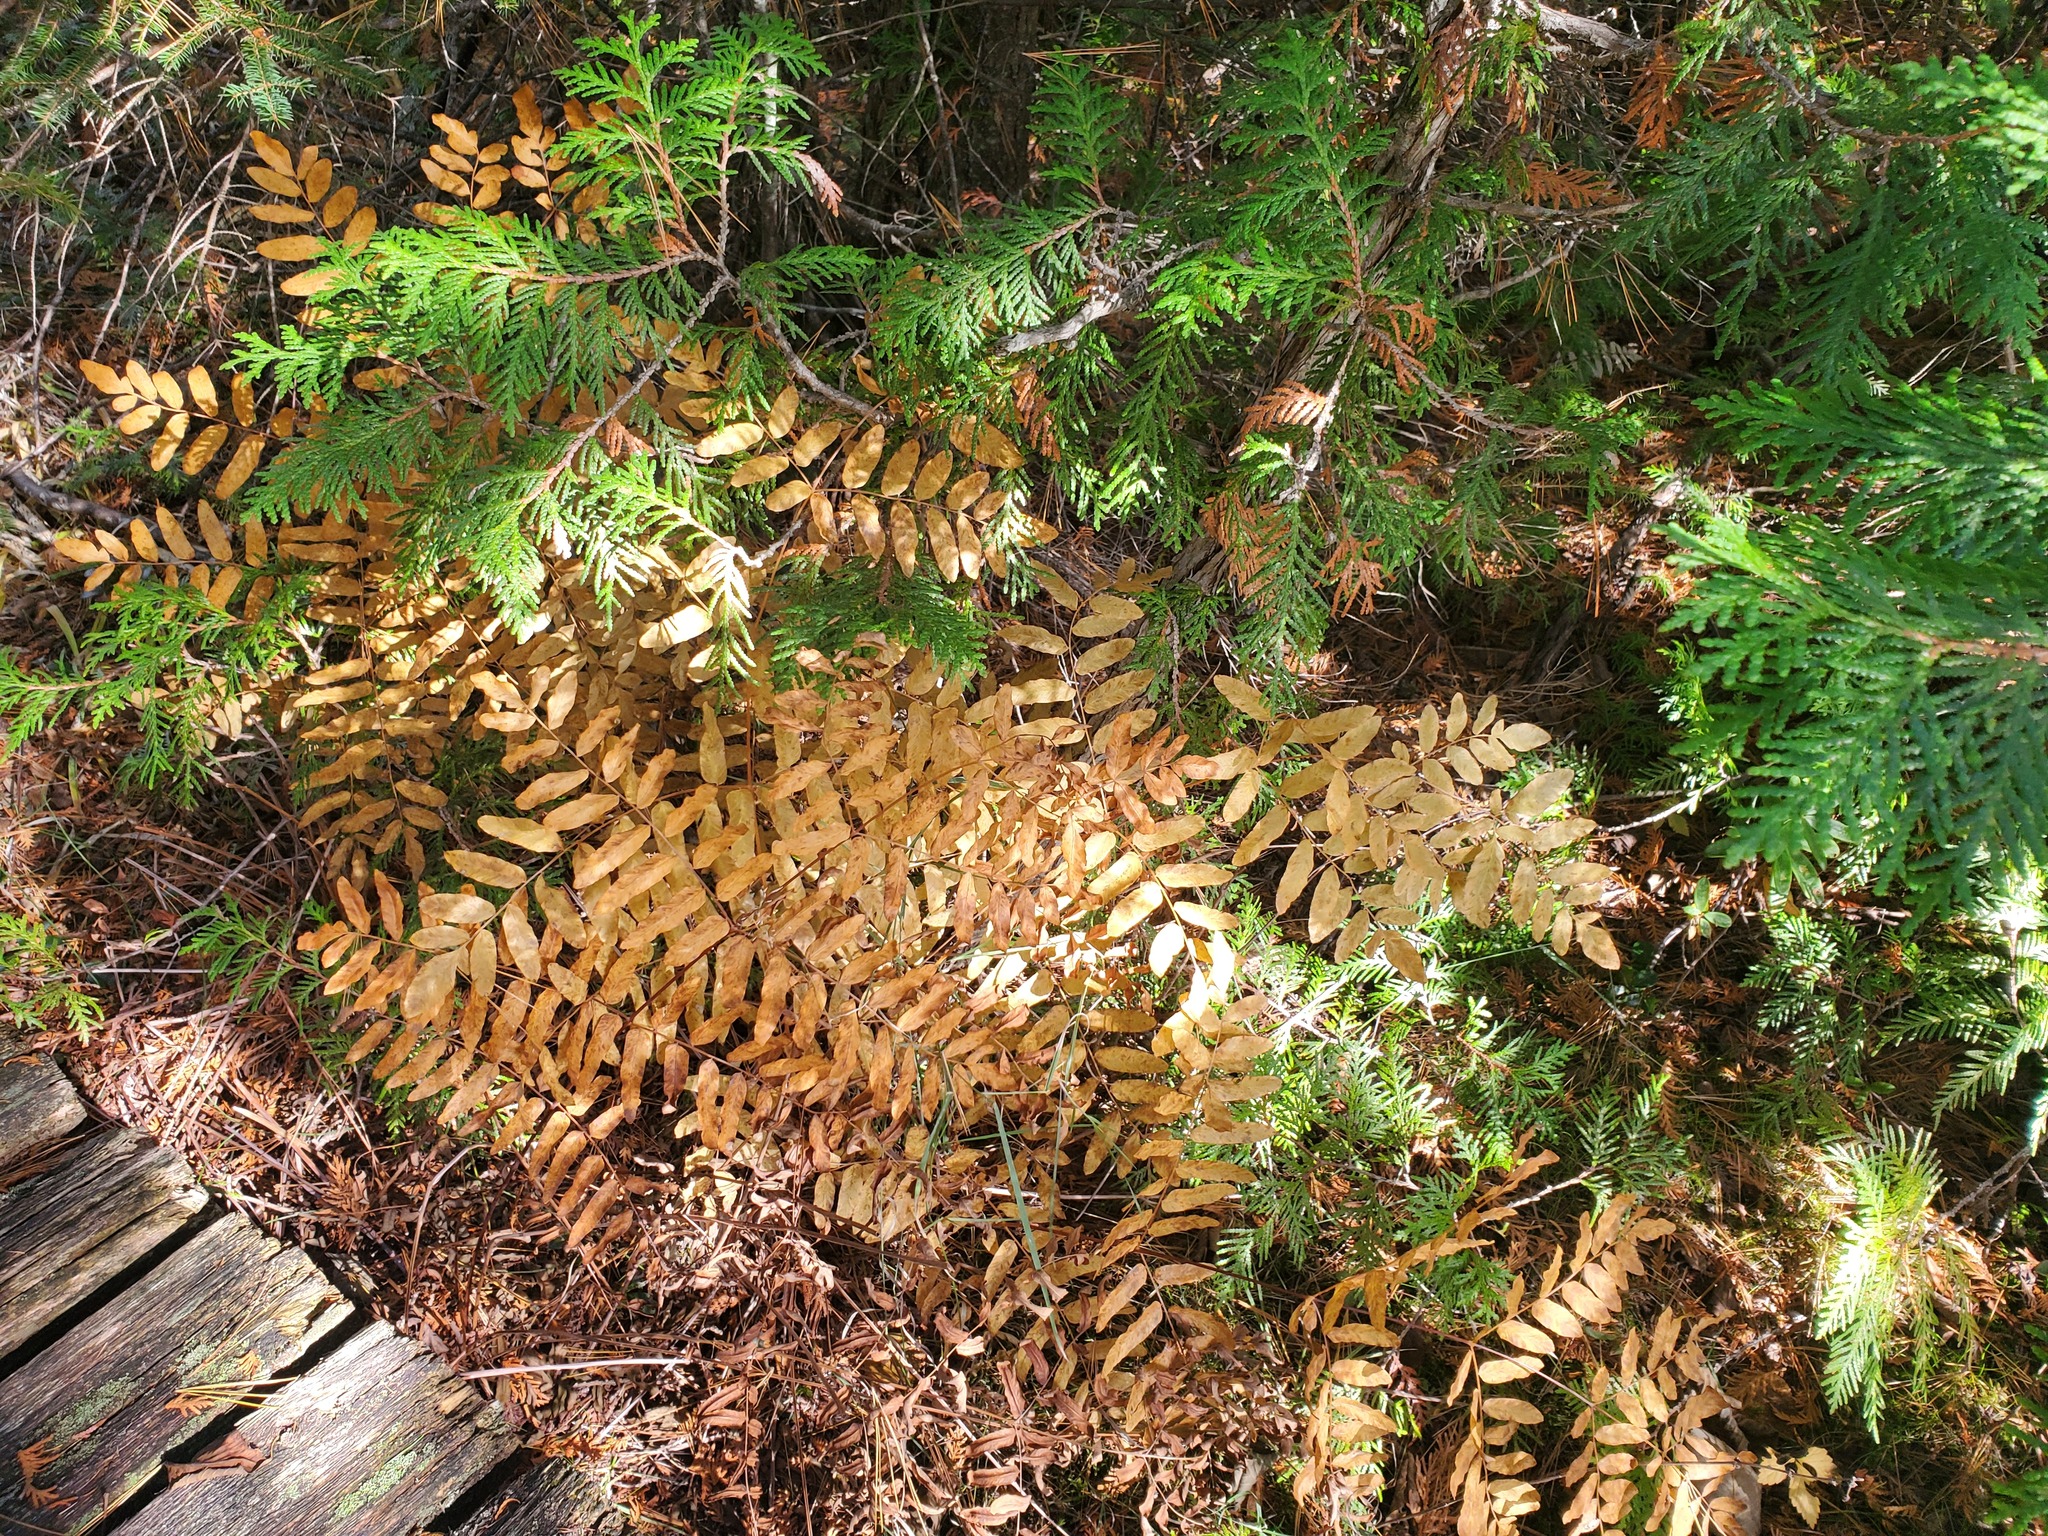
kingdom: Plantae
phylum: Tracheophyta
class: Polypodiopsida
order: Osmundales
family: Osmundaceae
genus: Osmunda
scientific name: Osmunda spectabilis
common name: American royal fern
